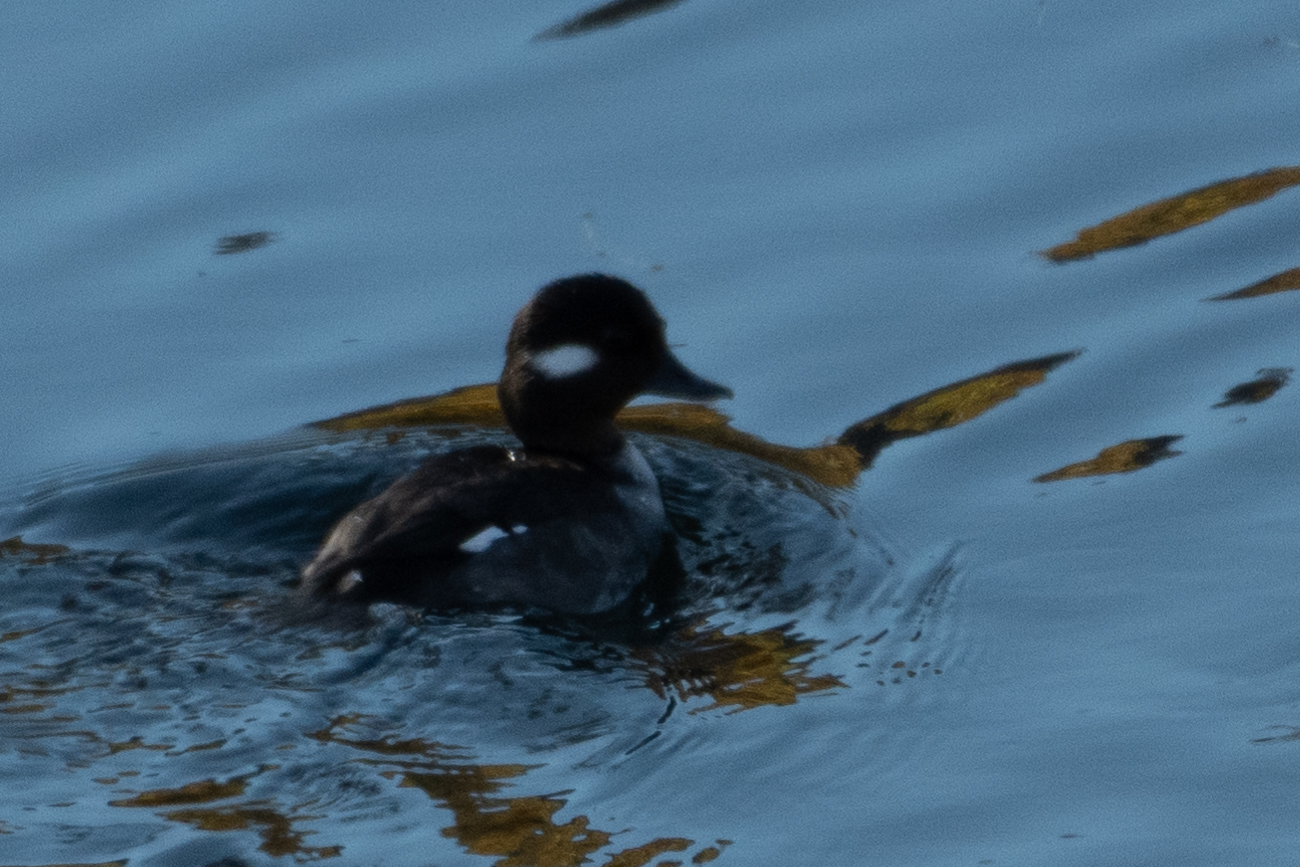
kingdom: Animalia
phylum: Chordata
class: Aves
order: Anseriformes
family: Anatidae
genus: Bucephala
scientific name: Bucephala albeola
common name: Bufflehead
